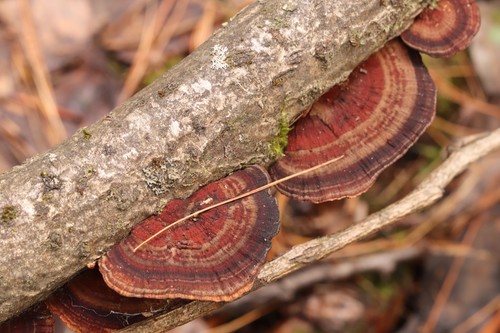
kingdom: Fungi
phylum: Basidiomycota
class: Agaricomycetes
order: Polyporales
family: Polyporaceae
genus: Daedaleopsis
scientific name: Daedaleopsis
